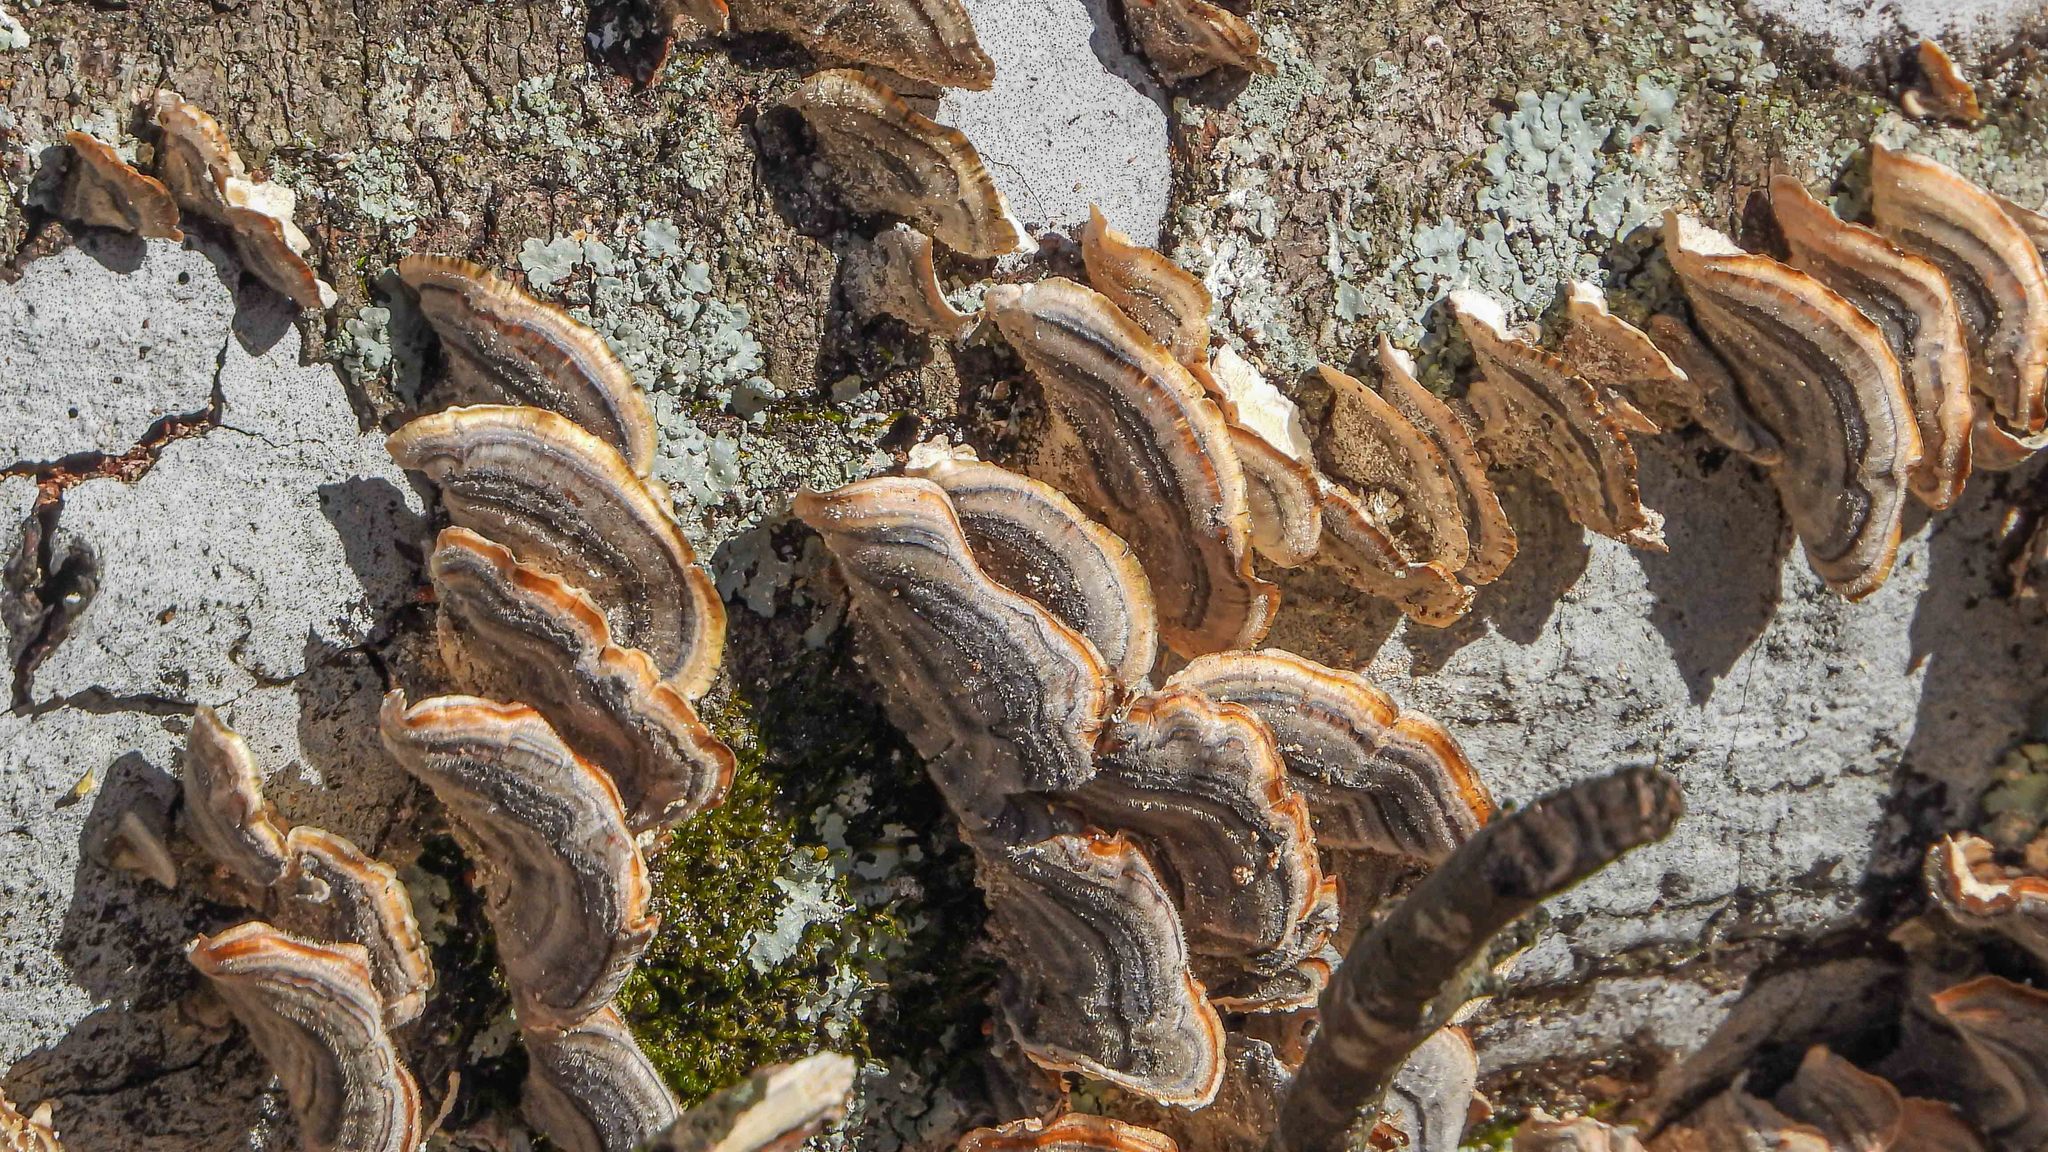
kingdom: Fungi
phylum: Basidiomycota
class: Agaricomycetes
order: Polyporales
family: Polyporaceae
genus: Trametes
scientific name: Trametes versicolor
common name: Turkeytail
